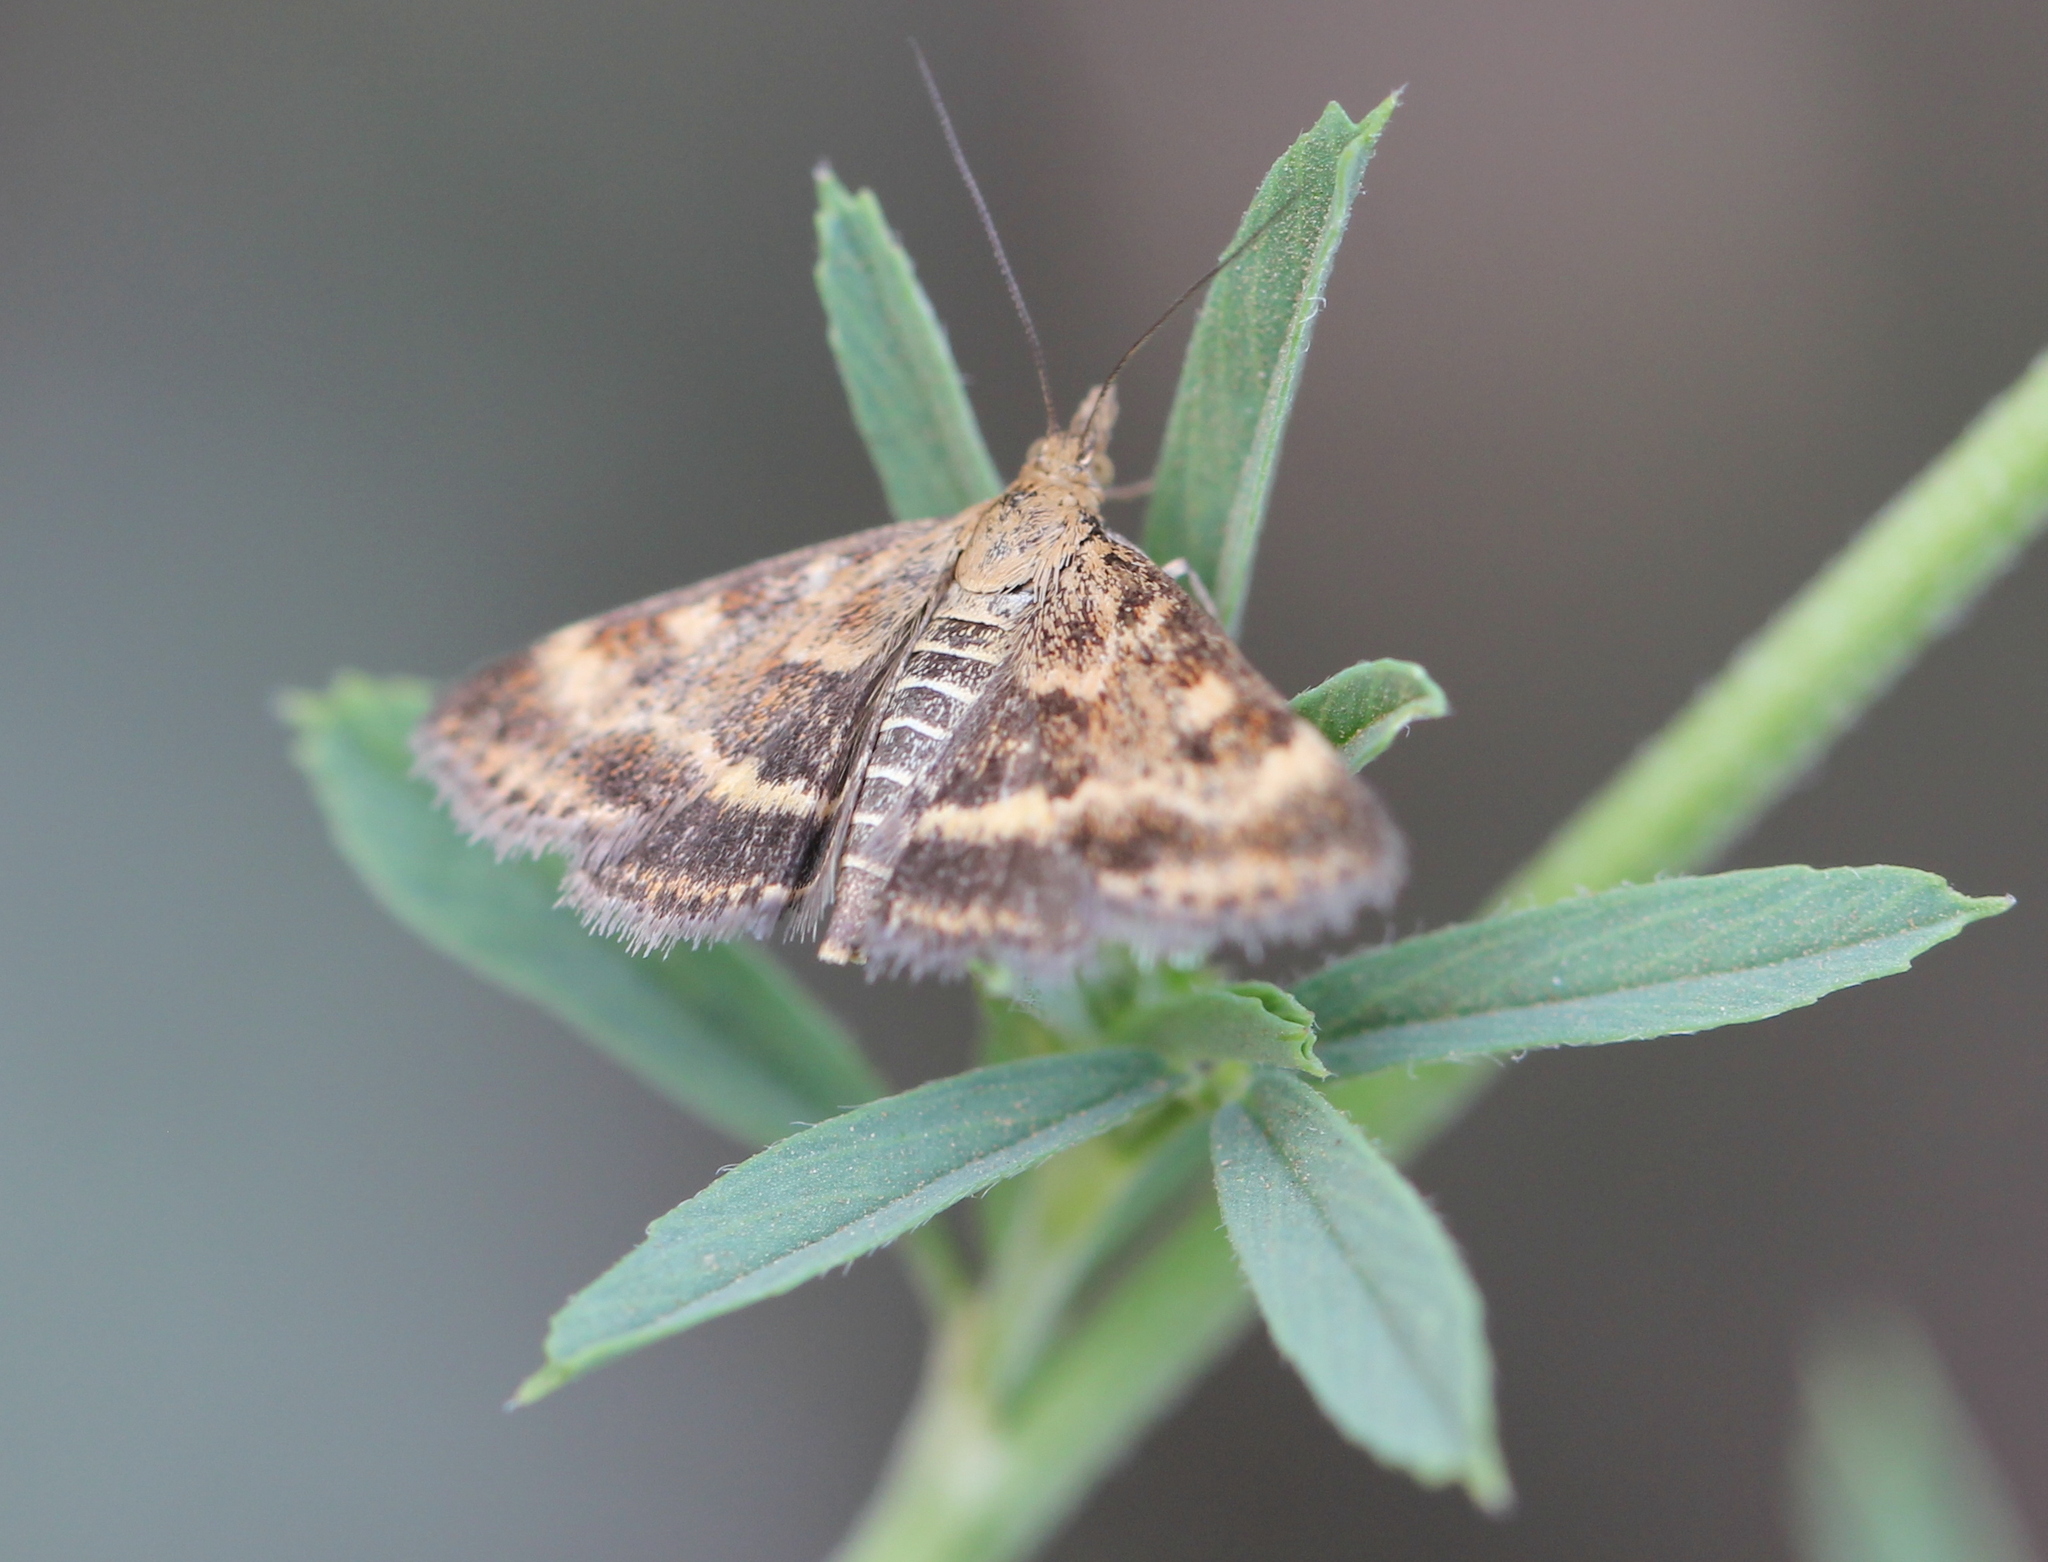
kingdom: Animalia
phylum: Arthropoda
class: Insecta
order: Lepidoptera
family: Crambidae
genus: Pyrausta
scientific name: Pyrausta despicata
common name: Straw-barred pearl
